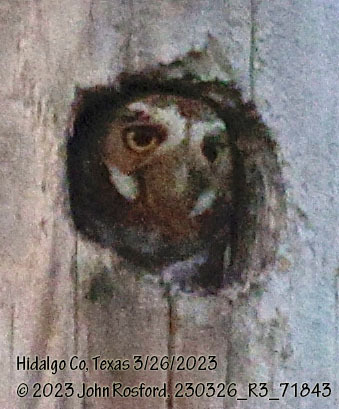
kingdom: Animalia
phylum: Chordata
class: Aves
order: Strigiformes
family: Strigidae
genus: Micrathene
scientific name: Micrathene whitneyi
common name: Elf owl
